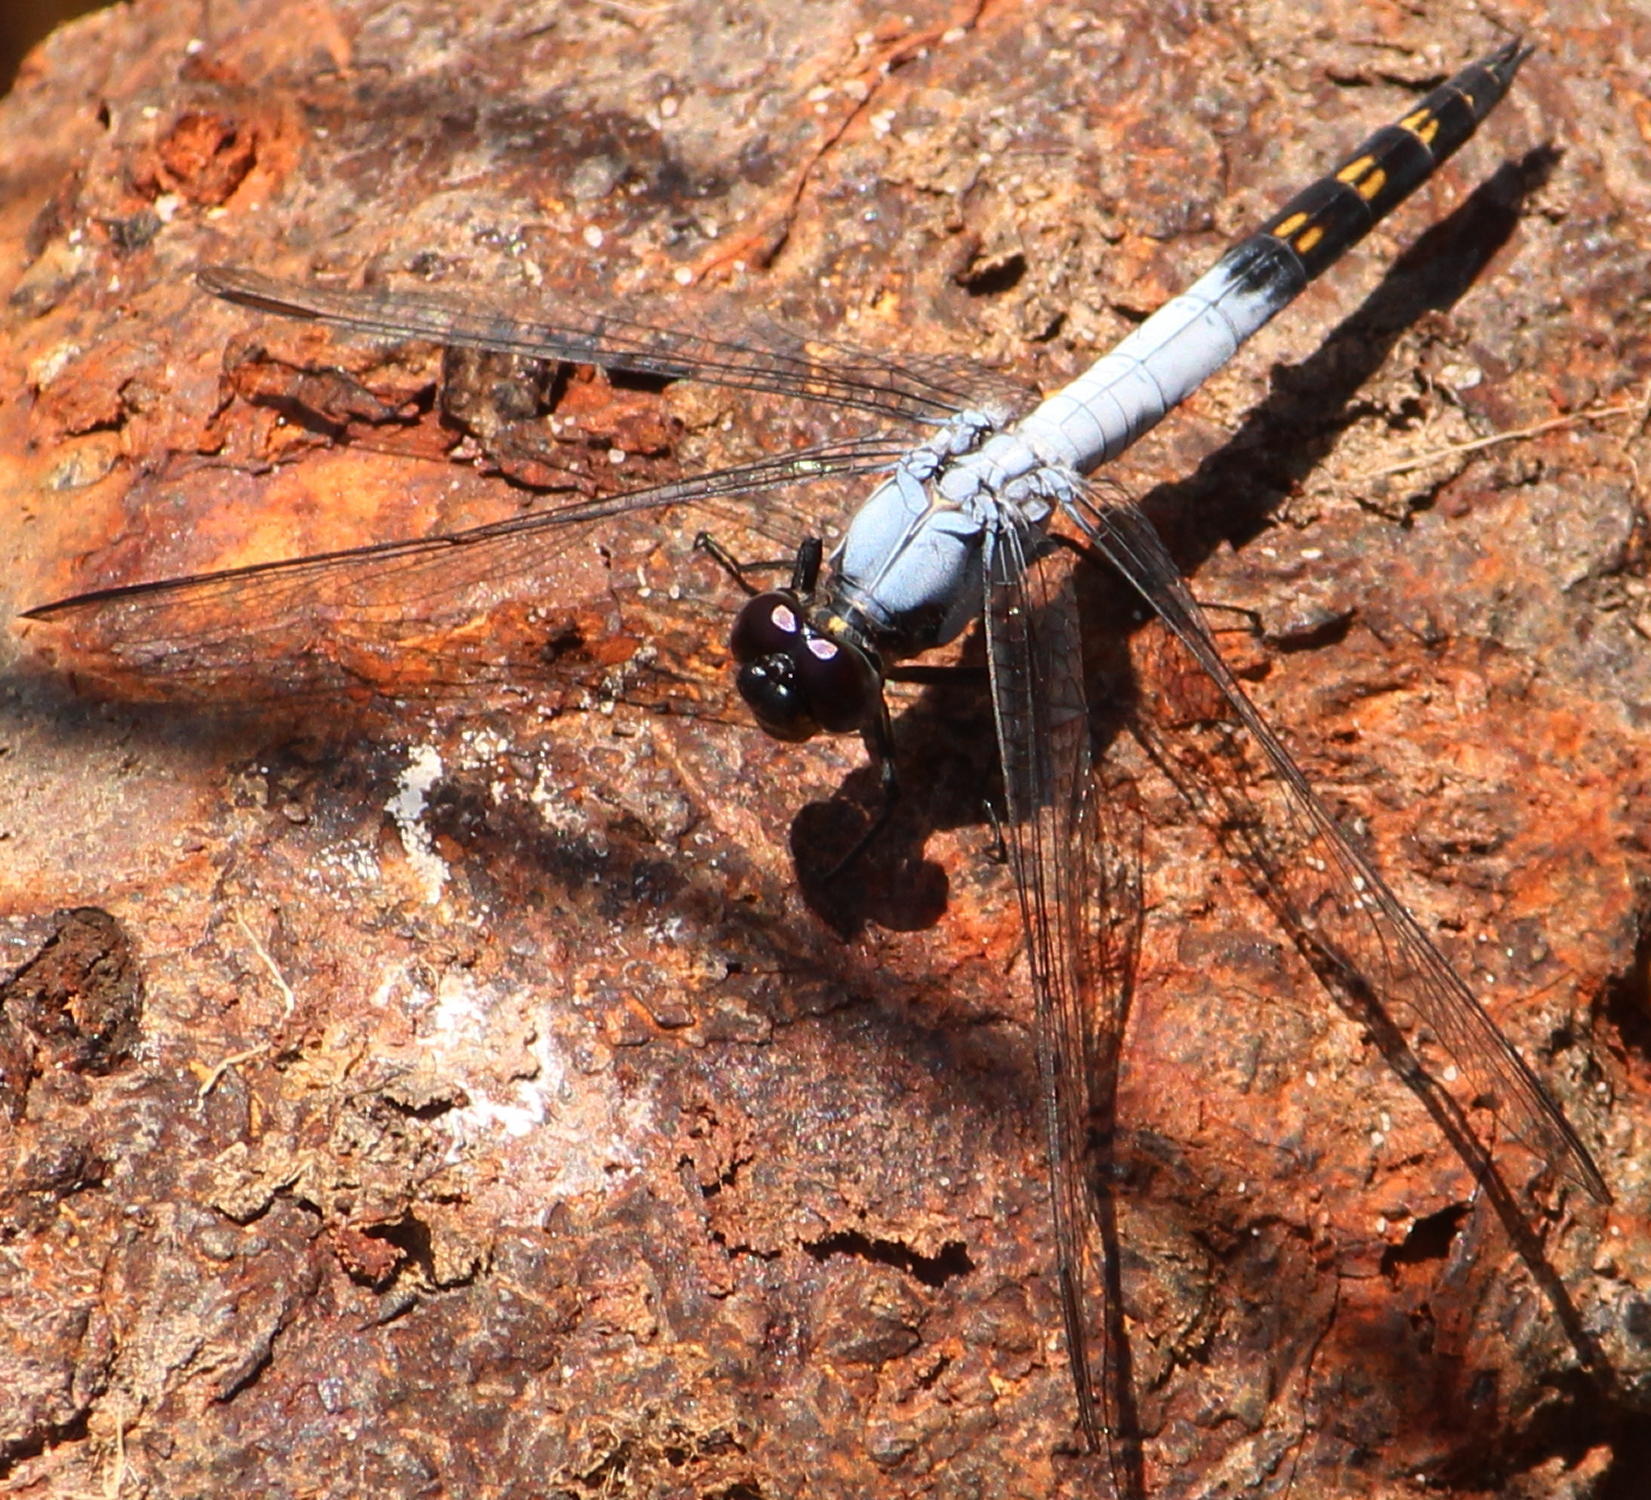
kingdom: Animalia
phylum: Arthropoda
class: Insecta
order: Odonata
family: Libellulidae
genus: Nesciothemis
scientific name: Nesciothemis farinosa
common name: Eastern blacktail
